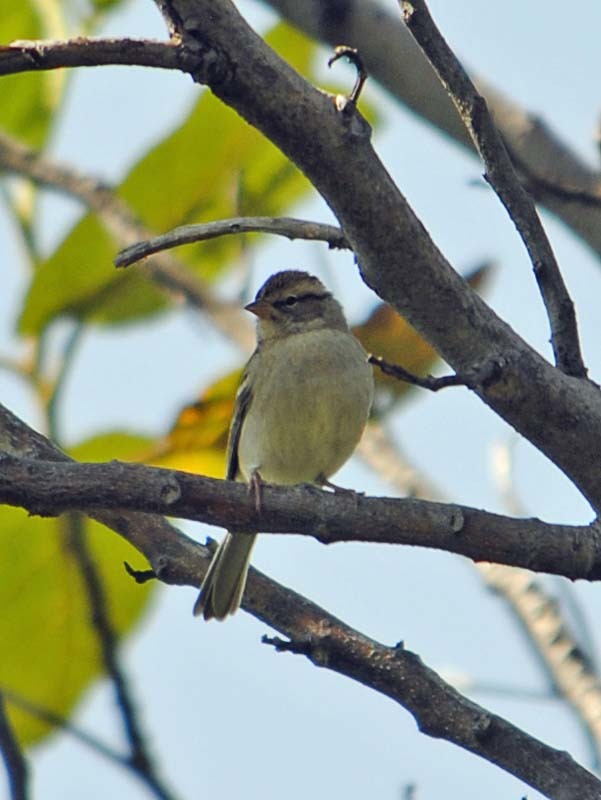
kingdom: Animalia
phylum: Chordata
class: Aves
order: Passeriformes
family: Passerellidae
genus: Spizella
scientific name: Spizella passerina
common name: Chipping sparrow
